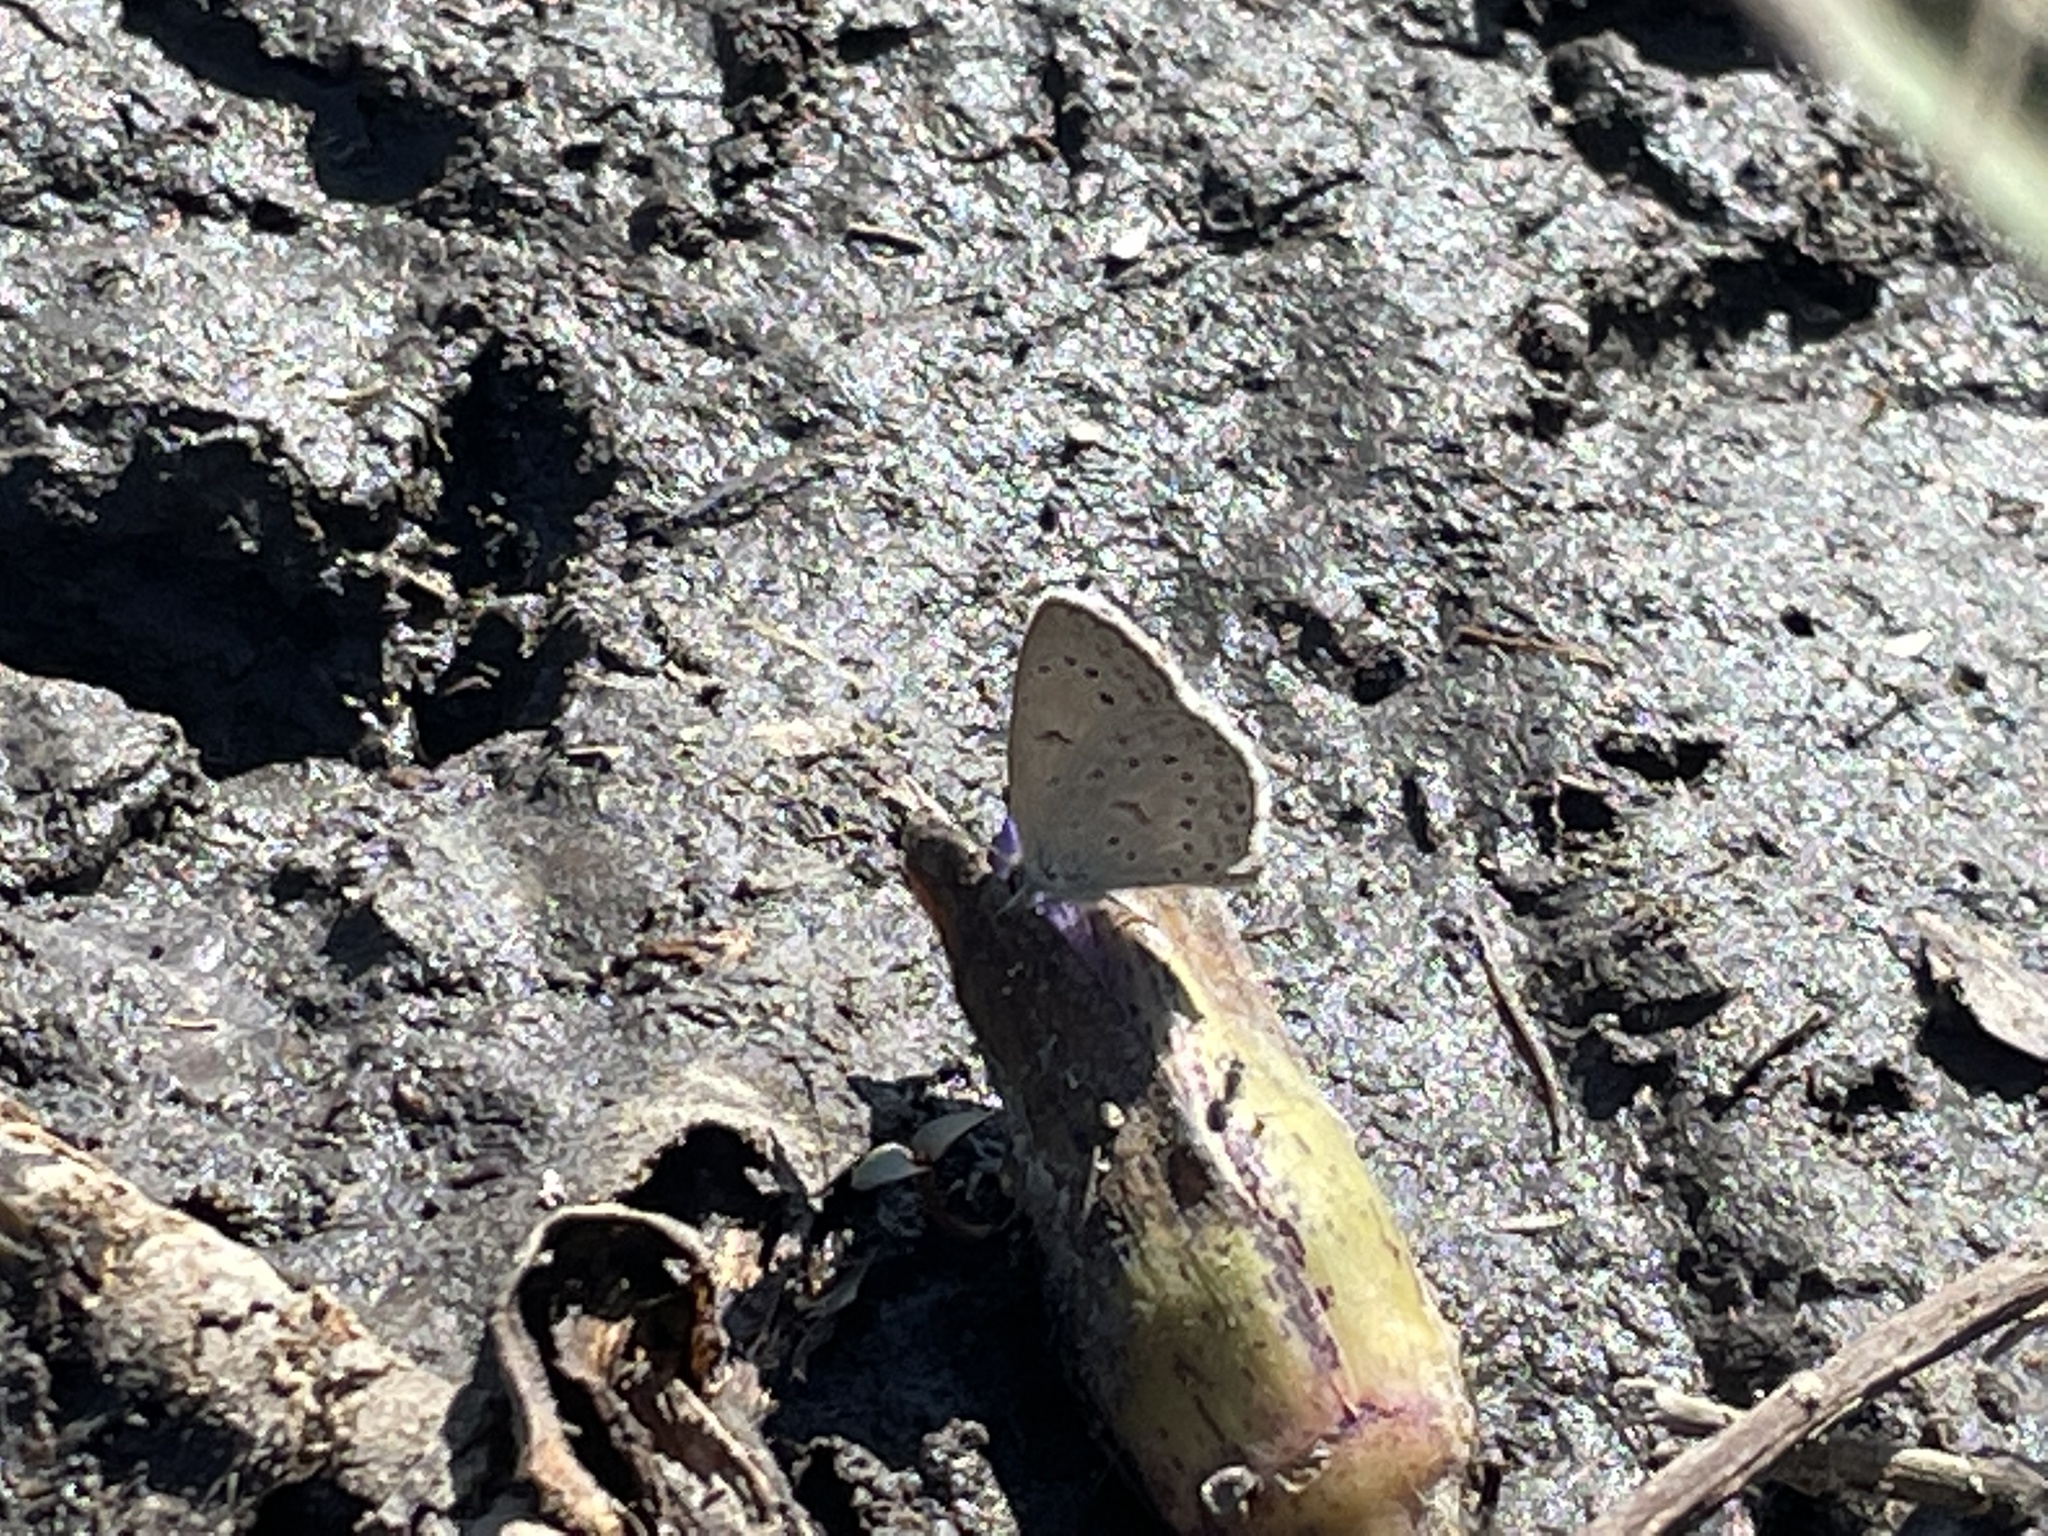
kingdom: Animalia
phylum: Arthropoda
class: Insecta
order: Lepidoptera
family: Lycaenidae
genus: Zizeeria
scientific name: Zizeeria knysna
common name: African grass blue
